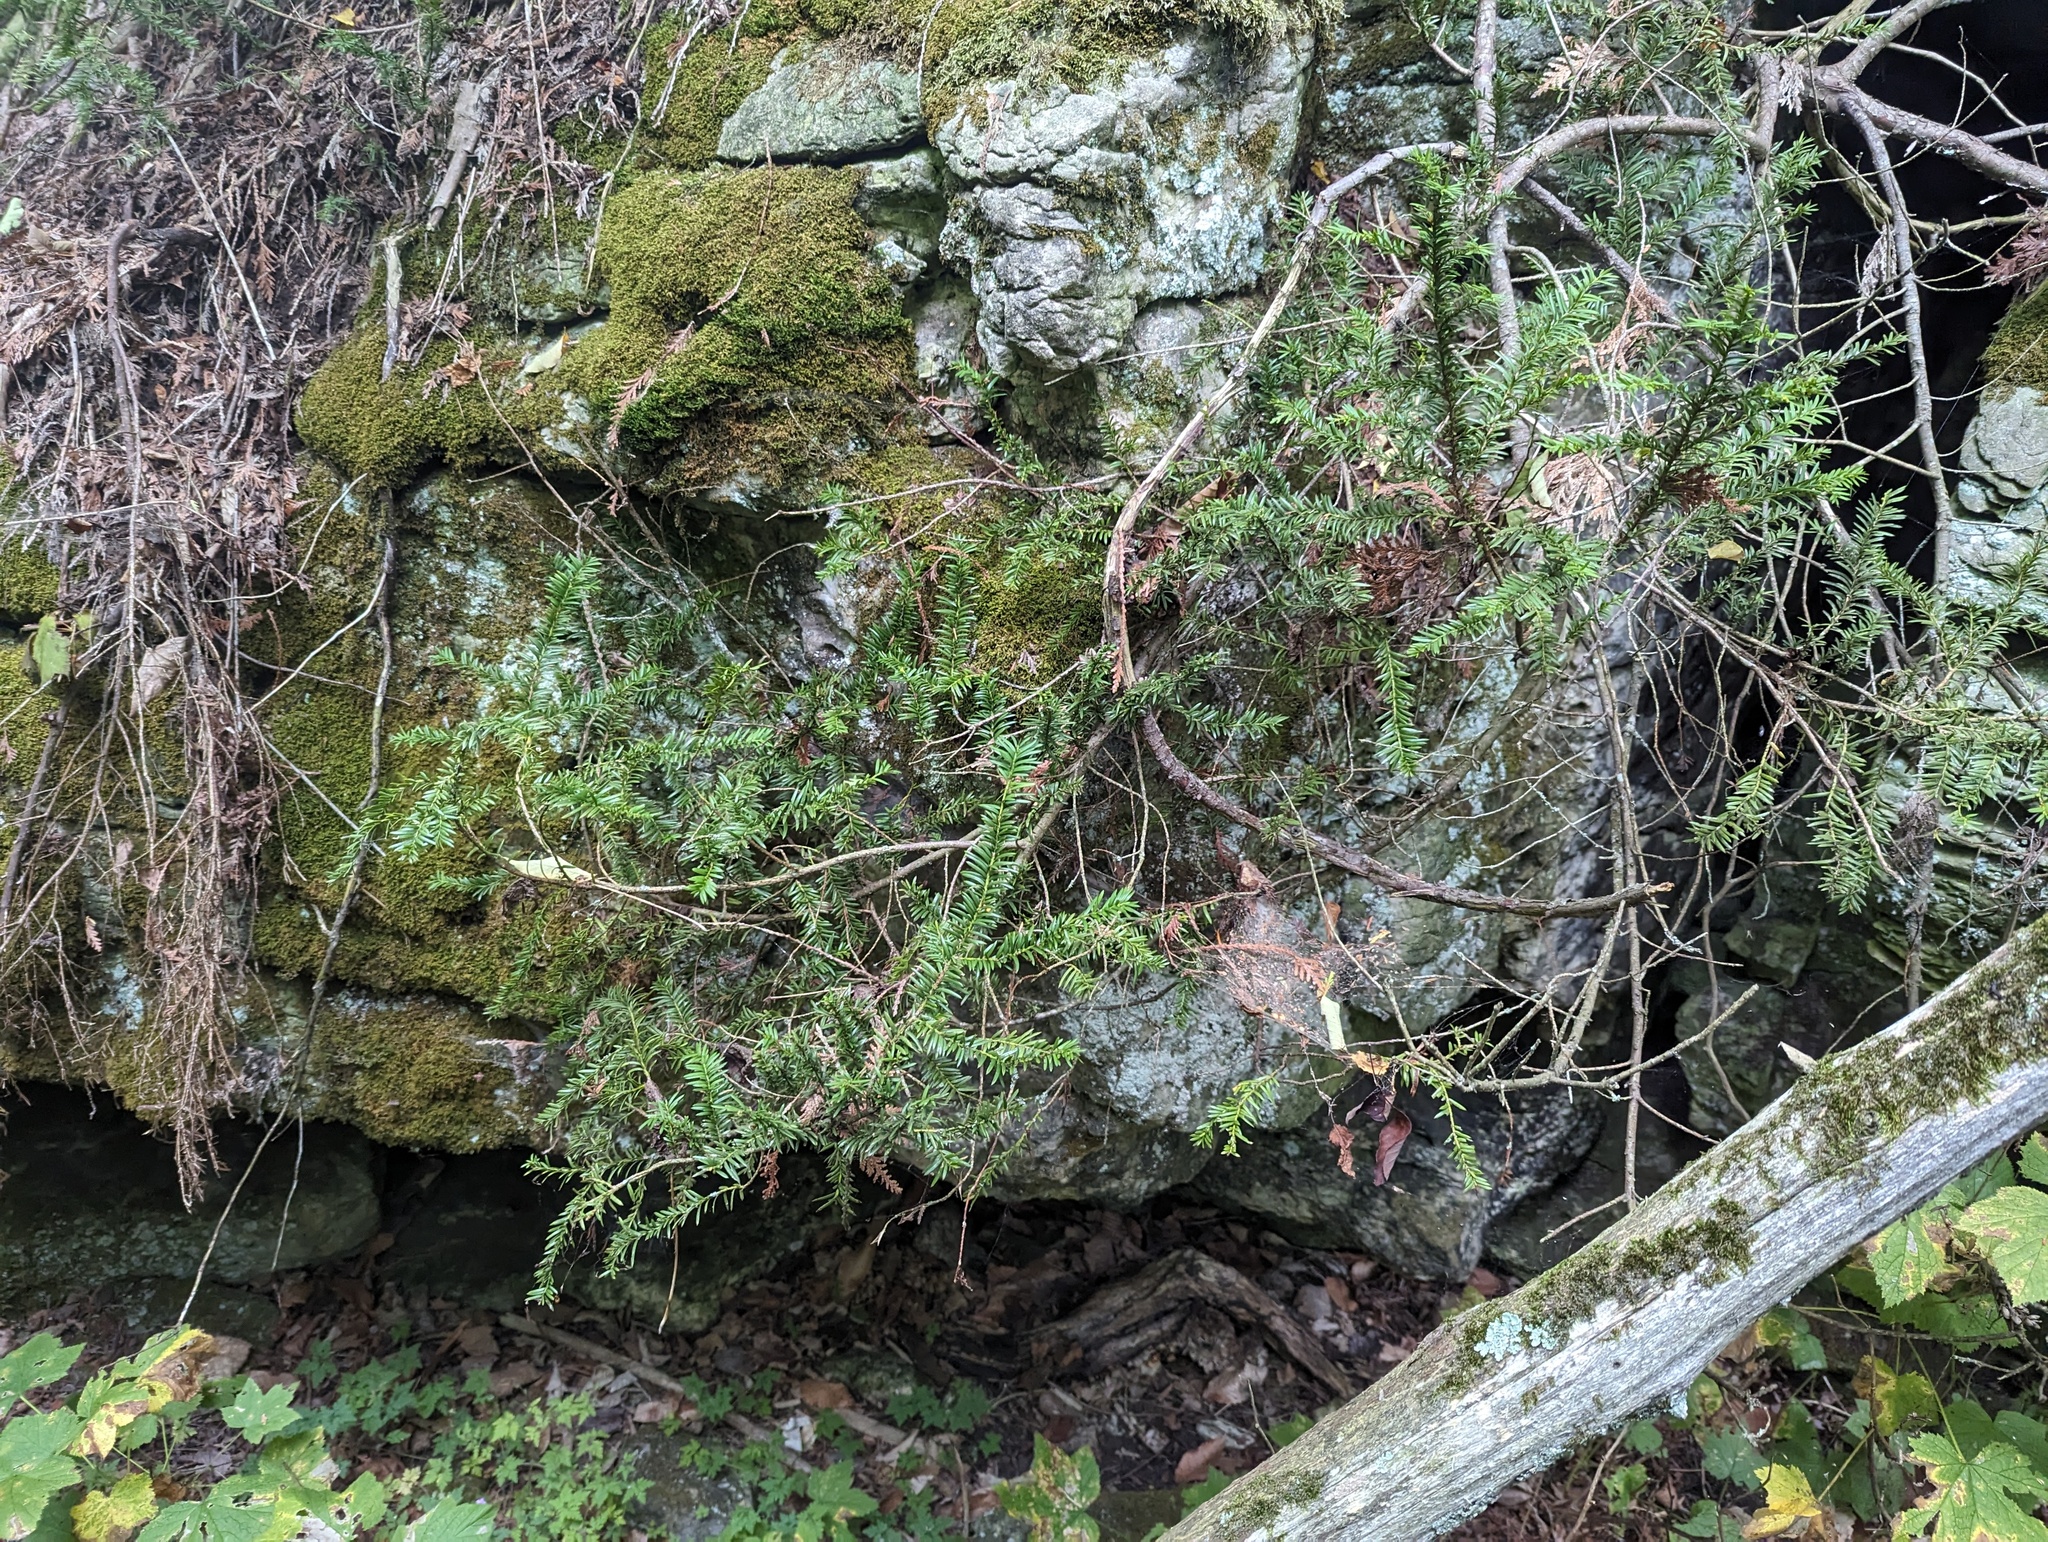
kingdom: Plantae
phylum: Tracheophyta
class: Pinopsida
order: Pinales
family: Taxaceae
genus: Taxus
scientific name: Taxus canadensis
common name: American yew
